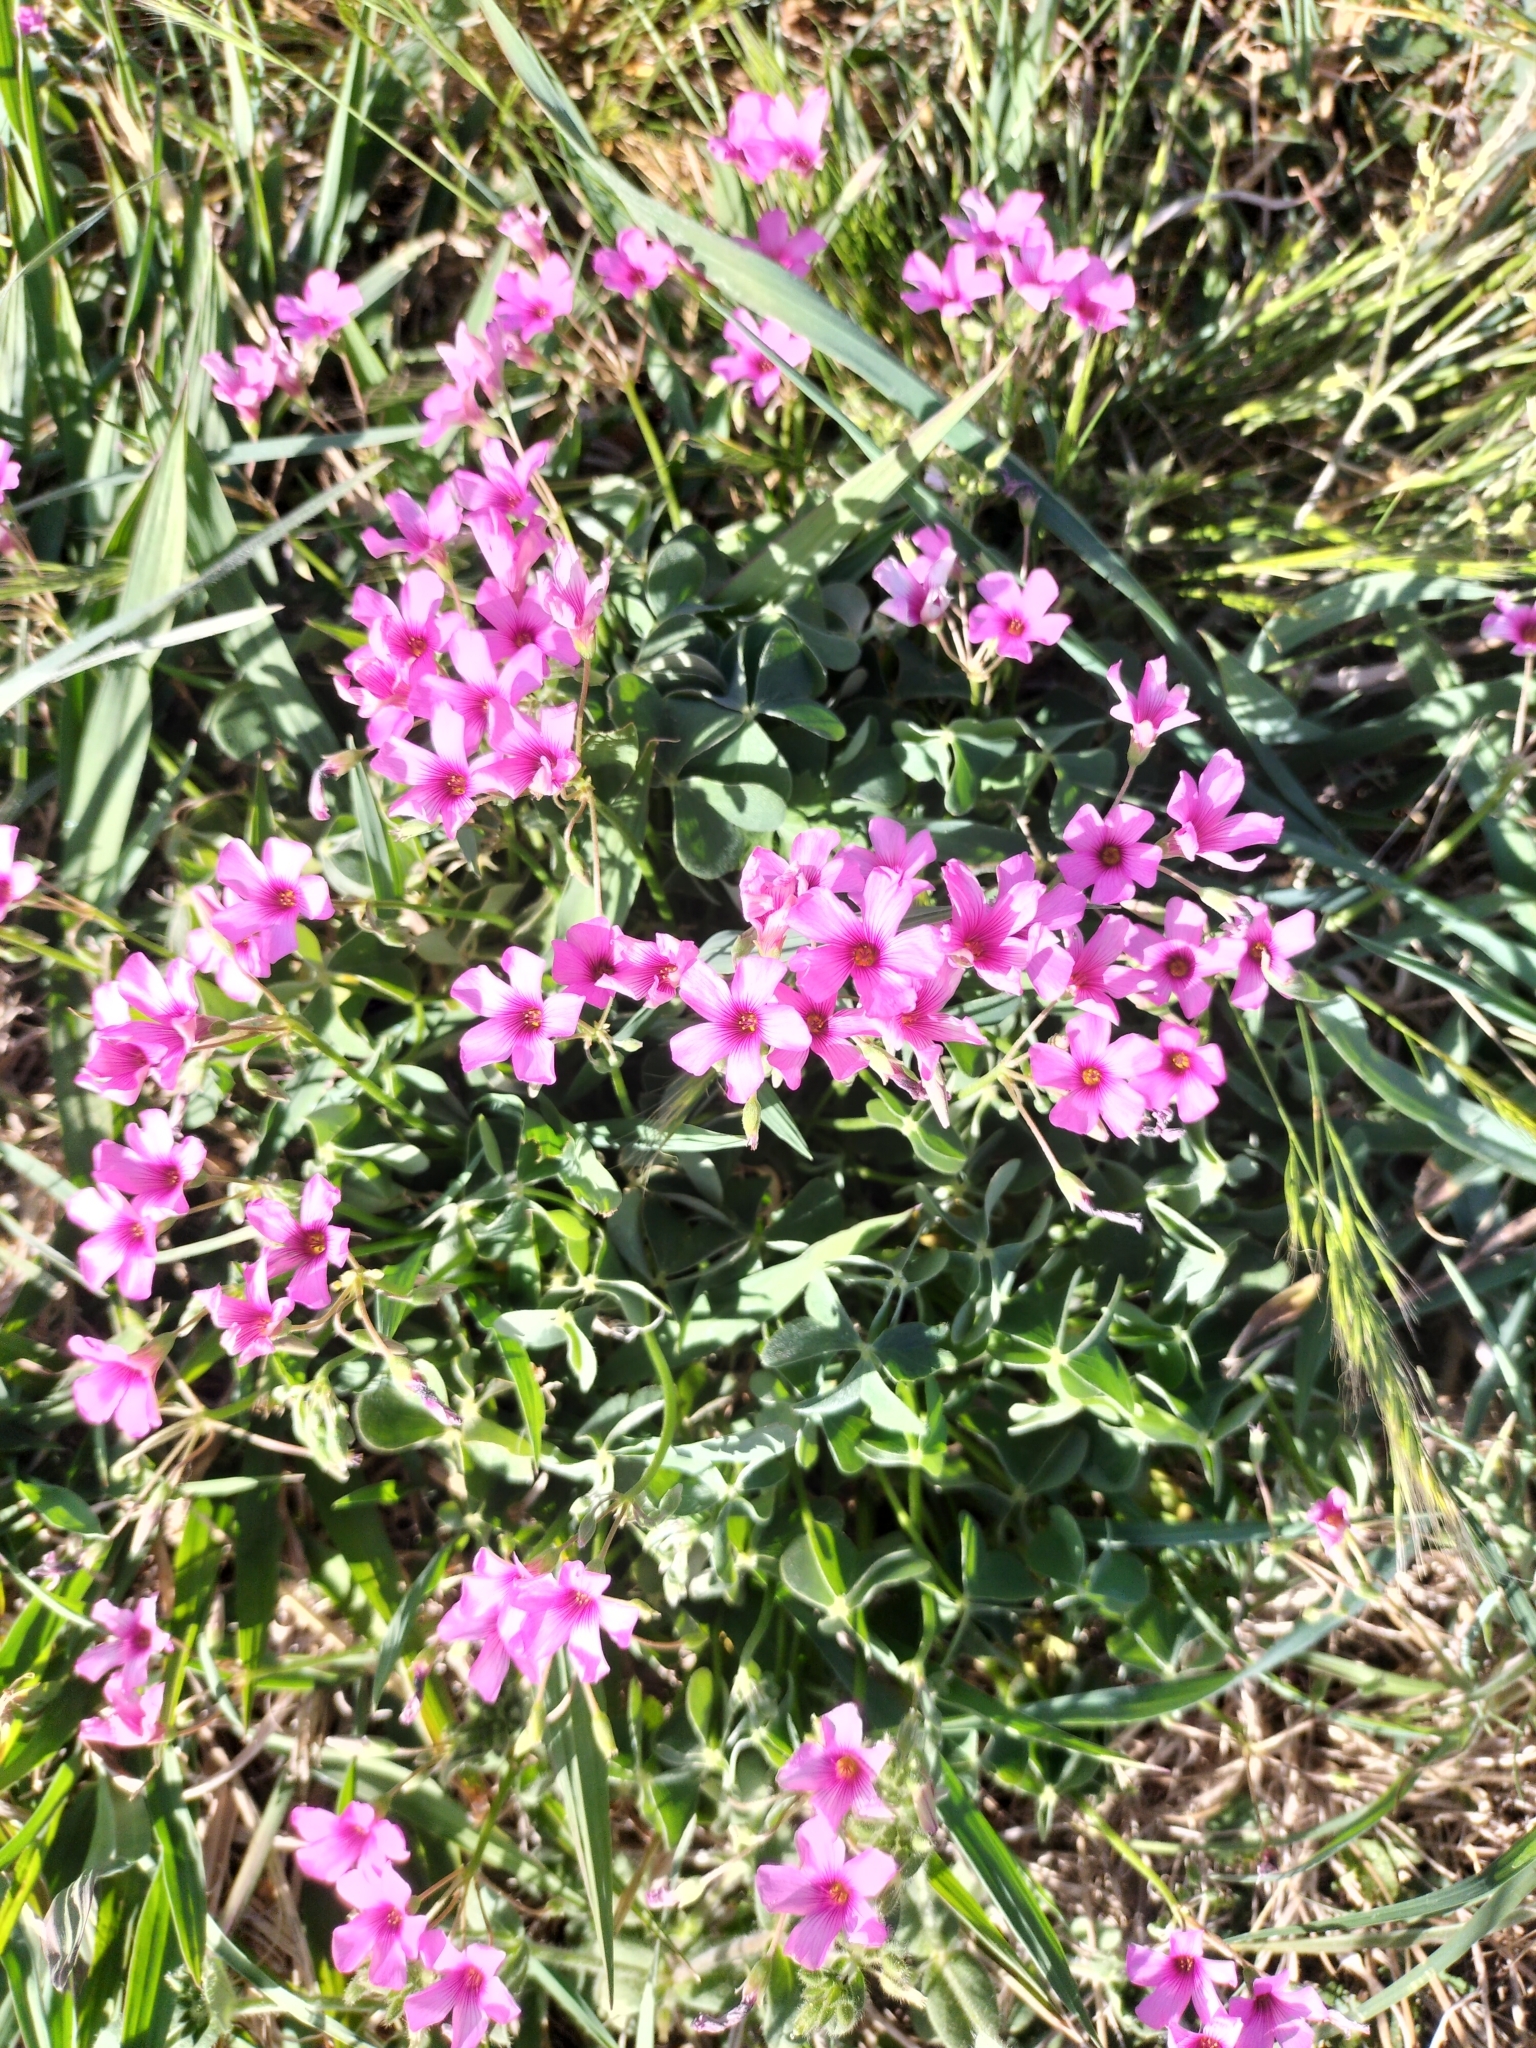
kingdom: Plantae
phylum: Tracheophyta
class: Magnoliopsida
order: Oxalidales
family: Oxalidaceae
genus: Oxalis
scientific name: Oxalis articulata
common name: Pink-sorrel
